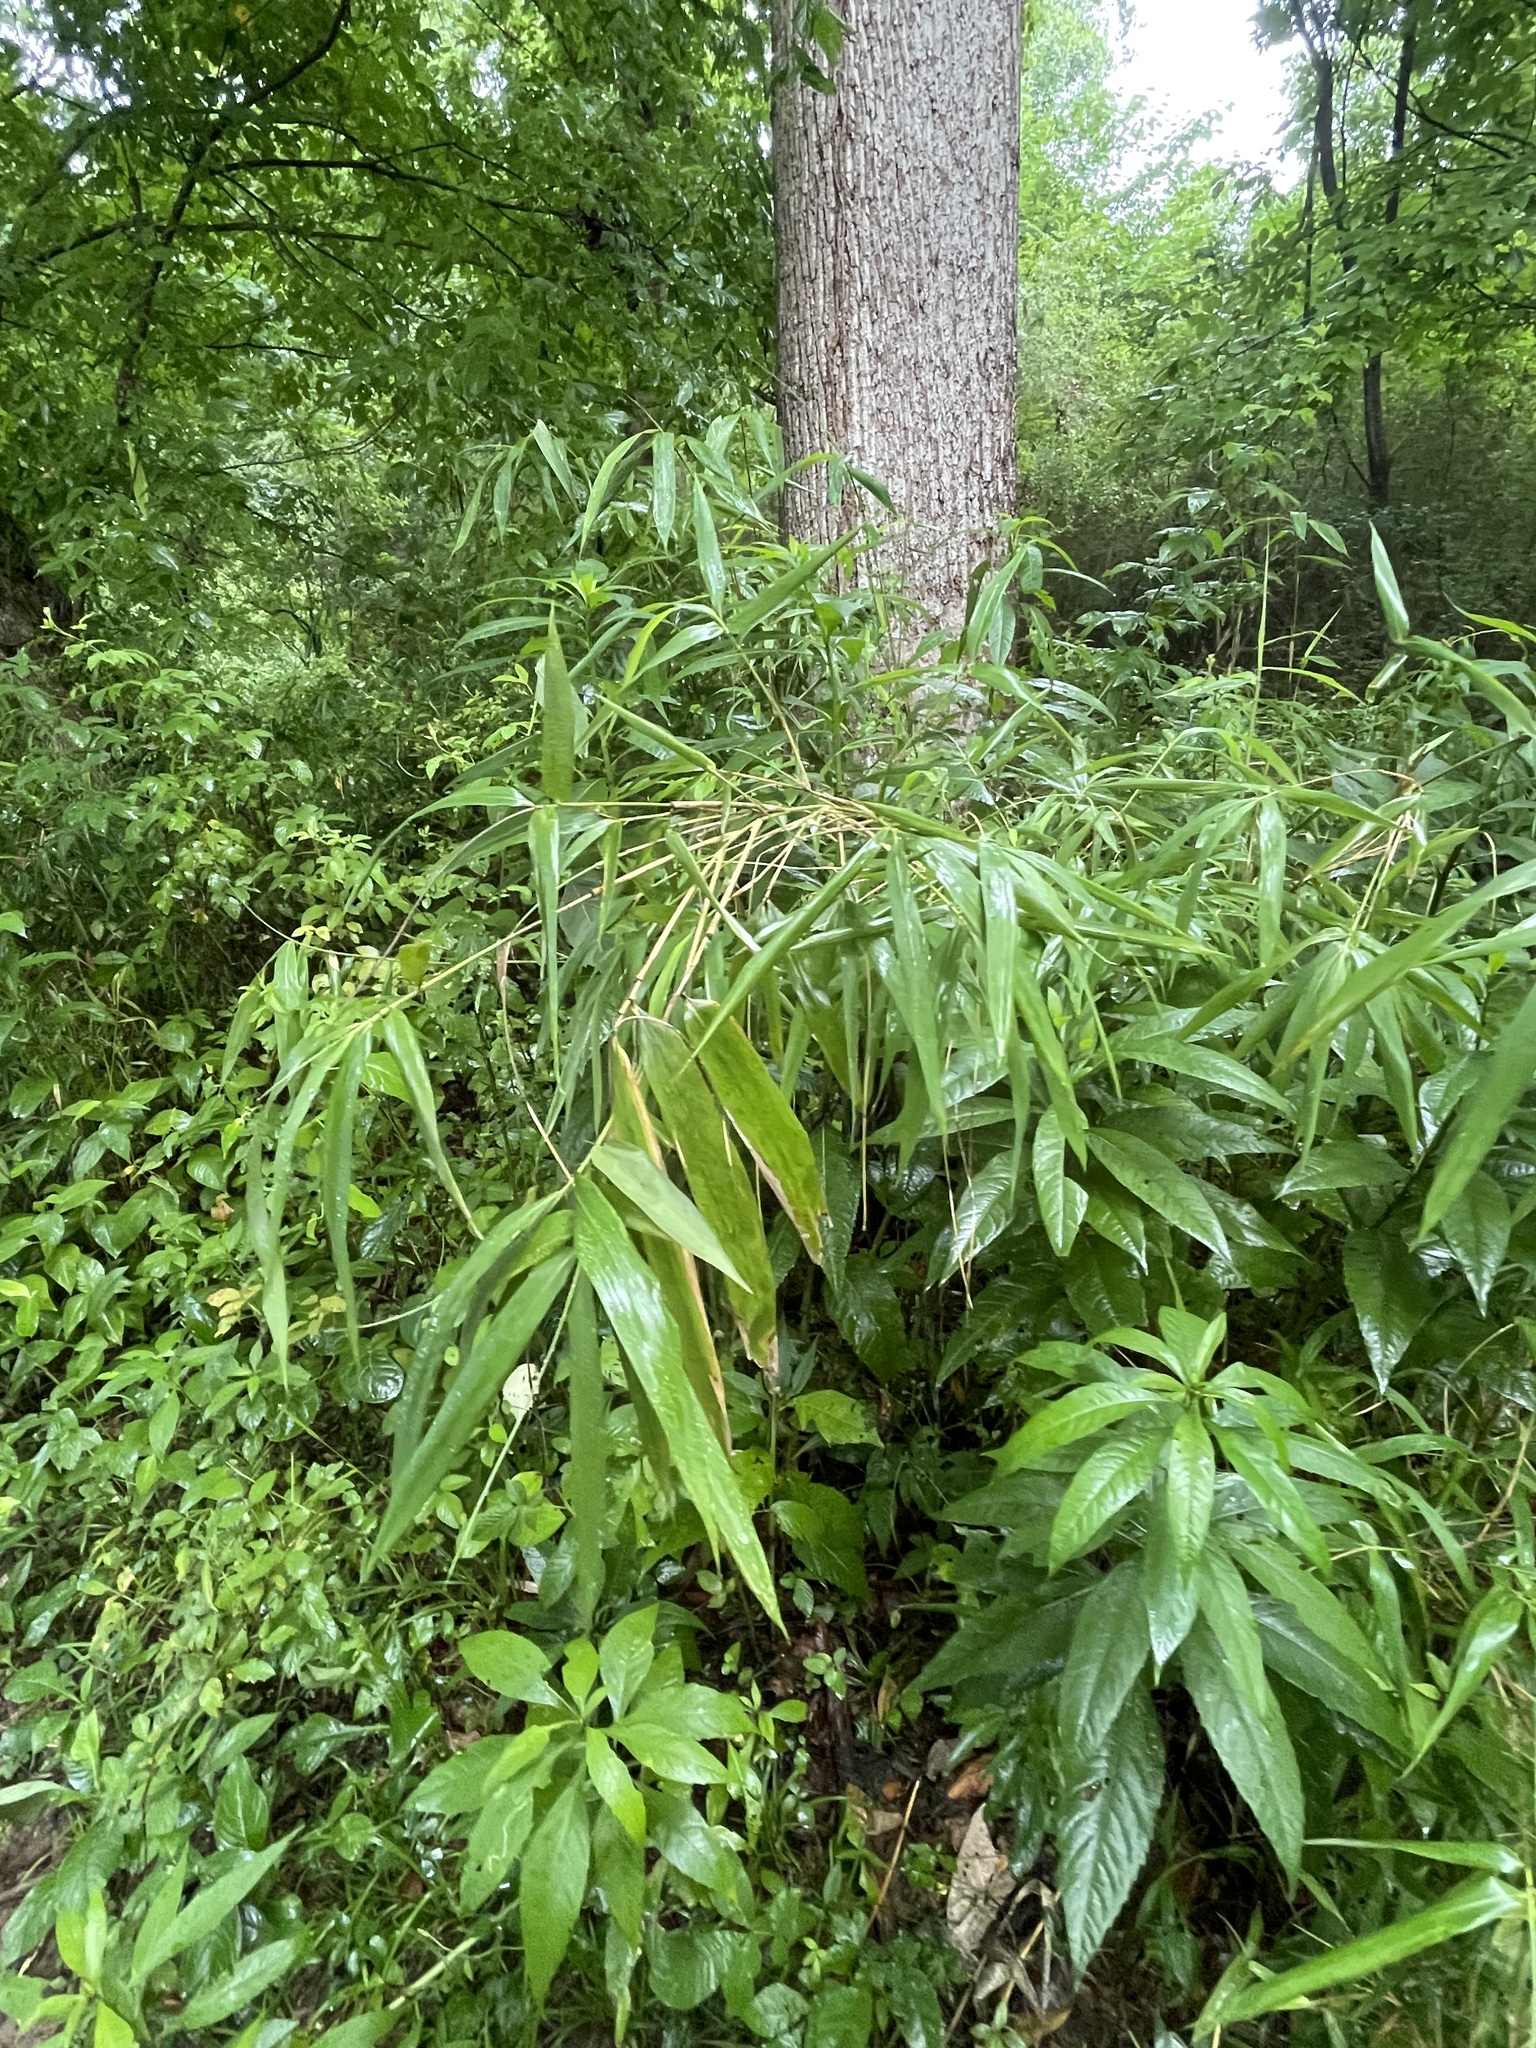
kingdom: Plantae
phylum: Tracheophyta
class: Liliopsida
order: Poales
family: Poaceae
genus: Arundinaria
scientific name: Arundinaria gigantea
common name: Giant cane
